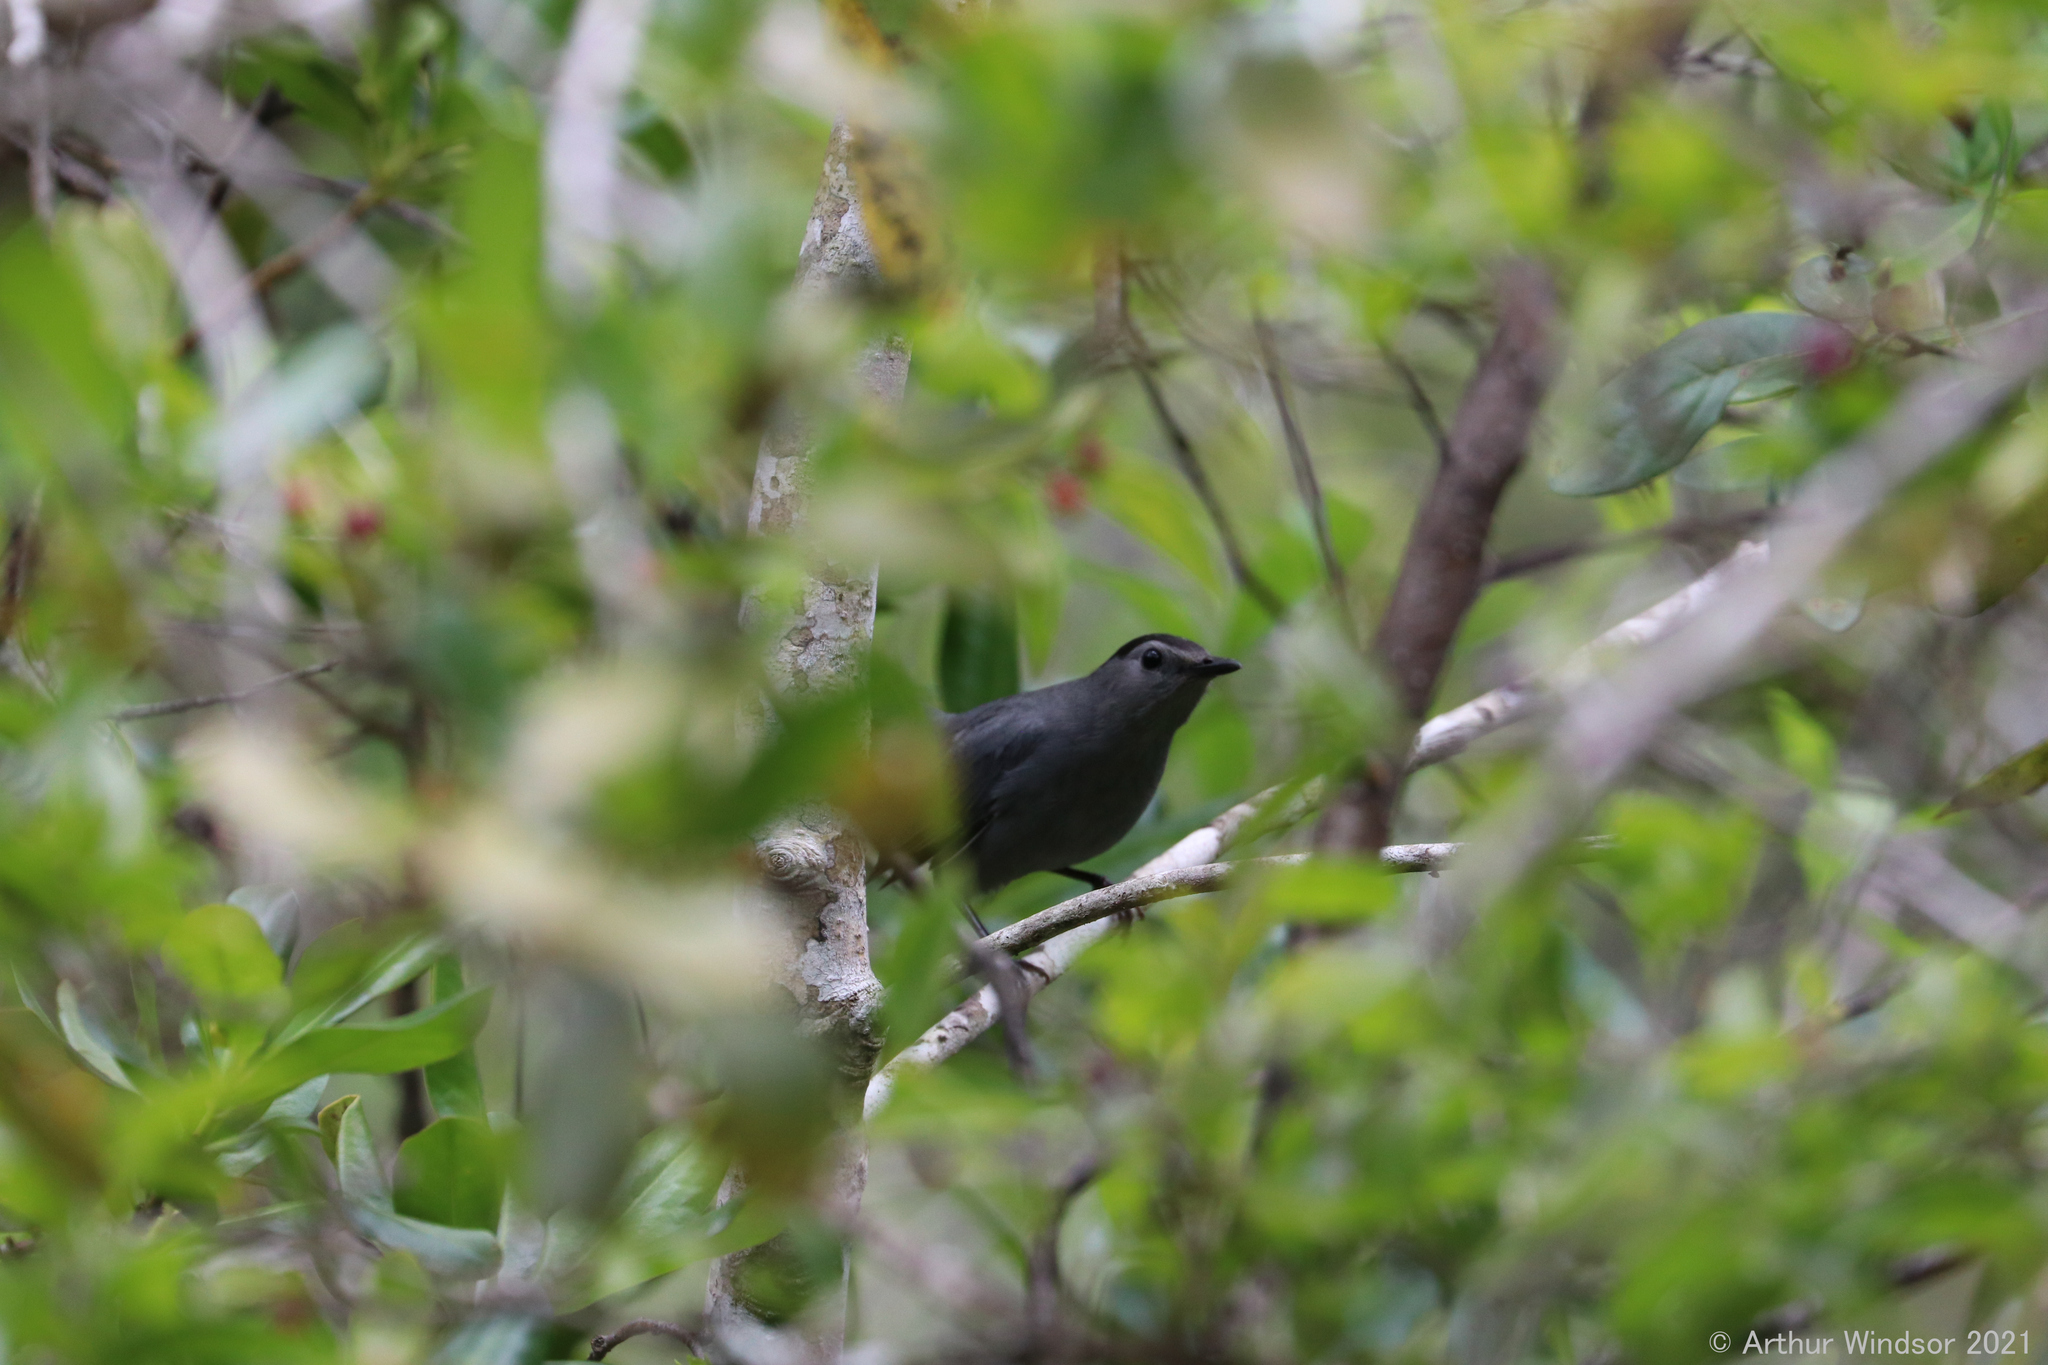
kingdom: Animalia
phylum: Chordata
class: Aves
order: Passeriformes
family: Mimidae
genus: Dumetella
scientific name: Dumetella carolinensis
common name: Gray catbird
